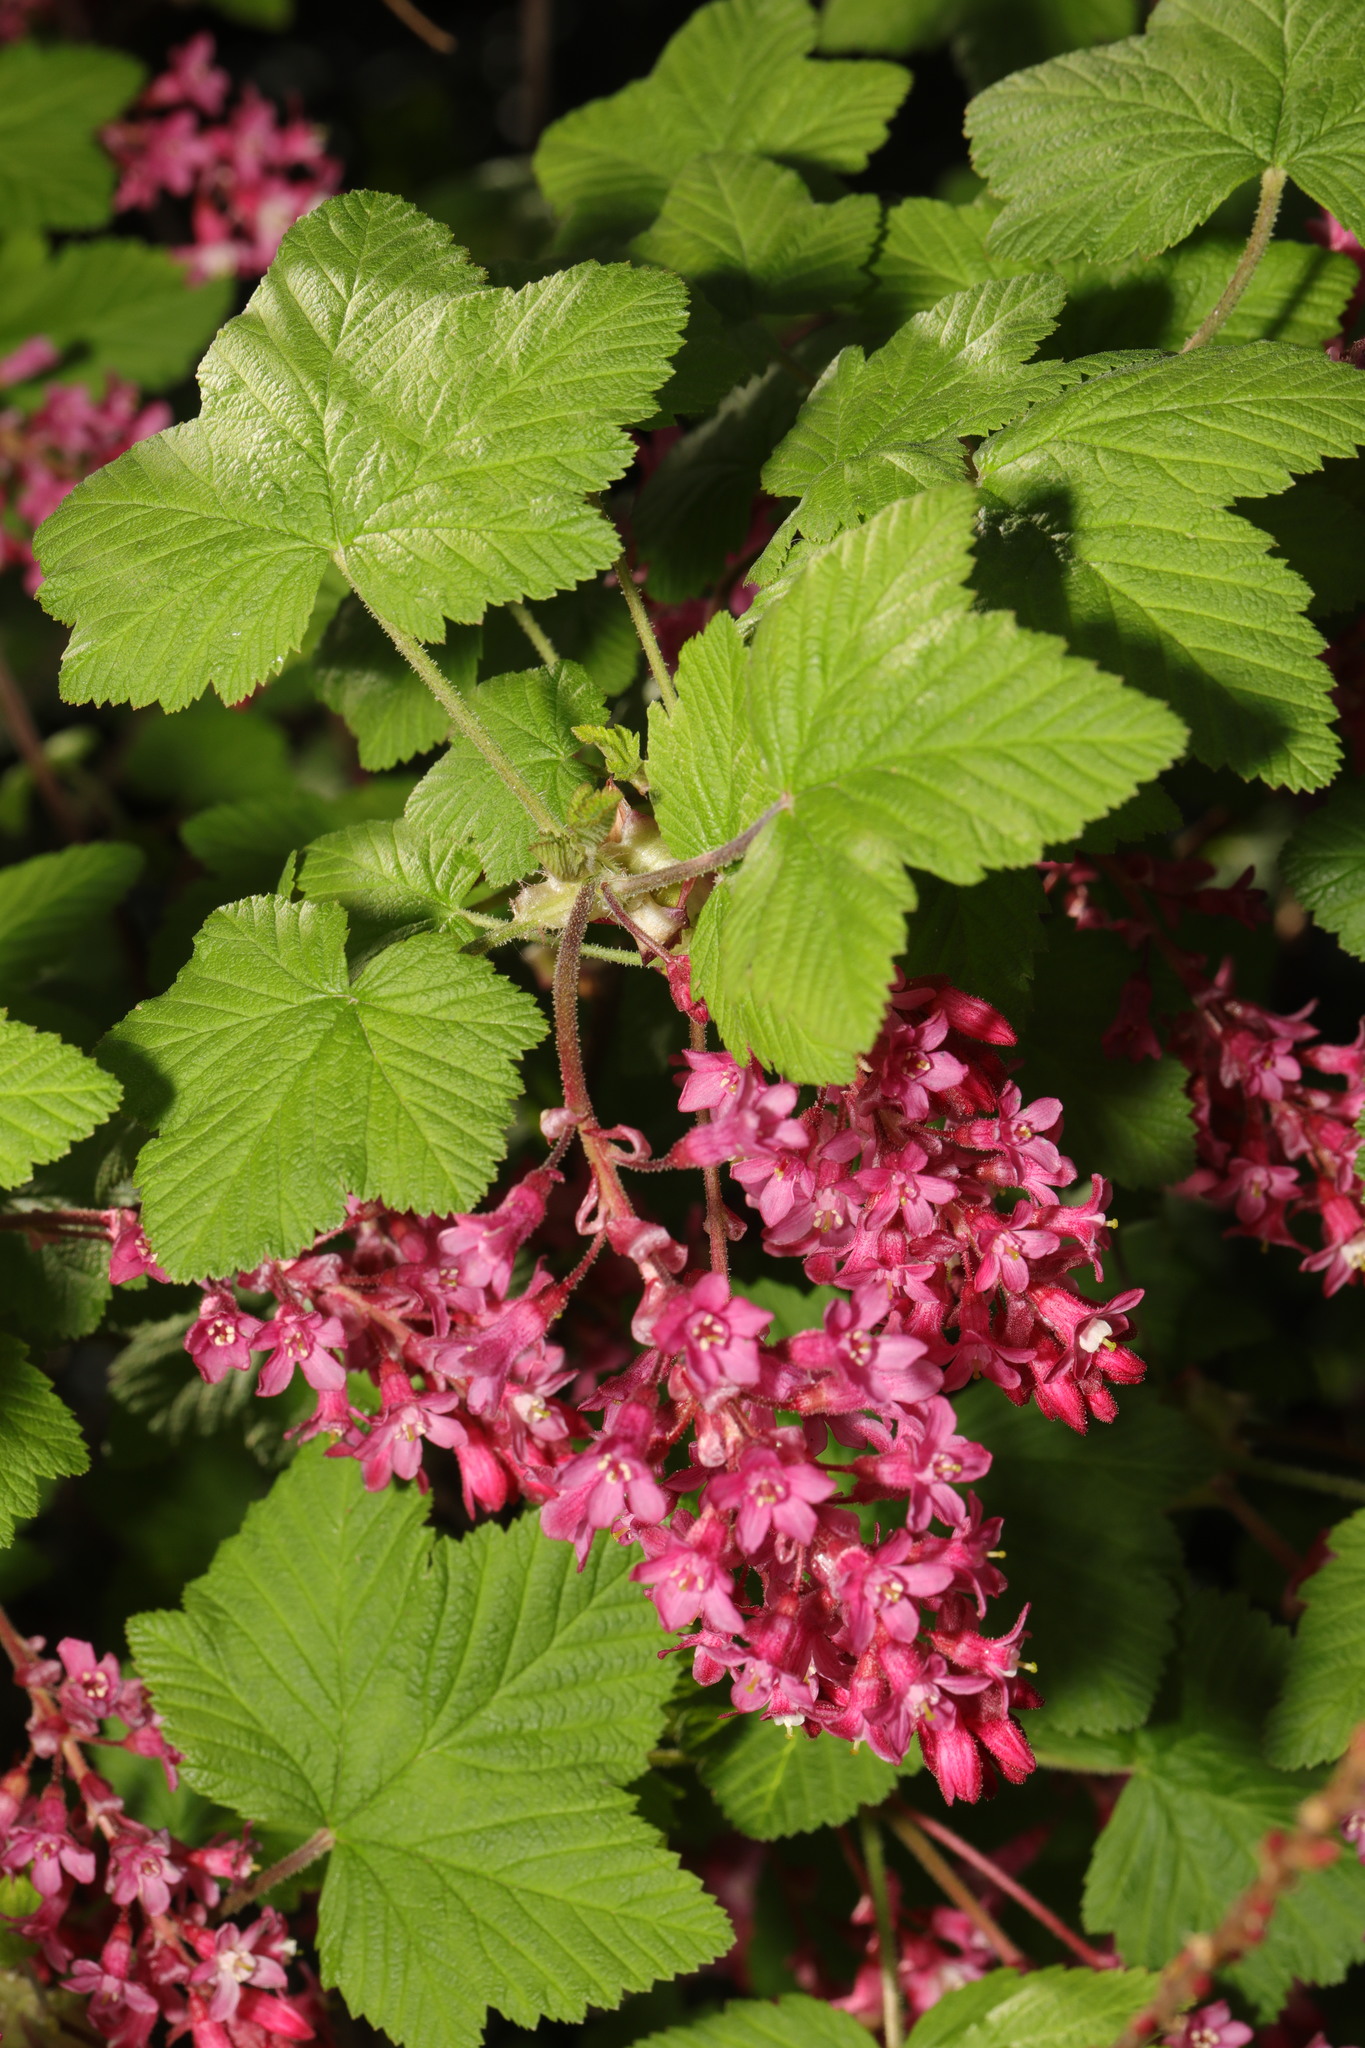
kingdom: Plantae
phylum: Tracheophyta
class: Magnoliopsida
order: Saxifragales
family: Grossulariaceae
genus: Ribes
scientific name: Ribes sanguineum
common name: Flowering currant
